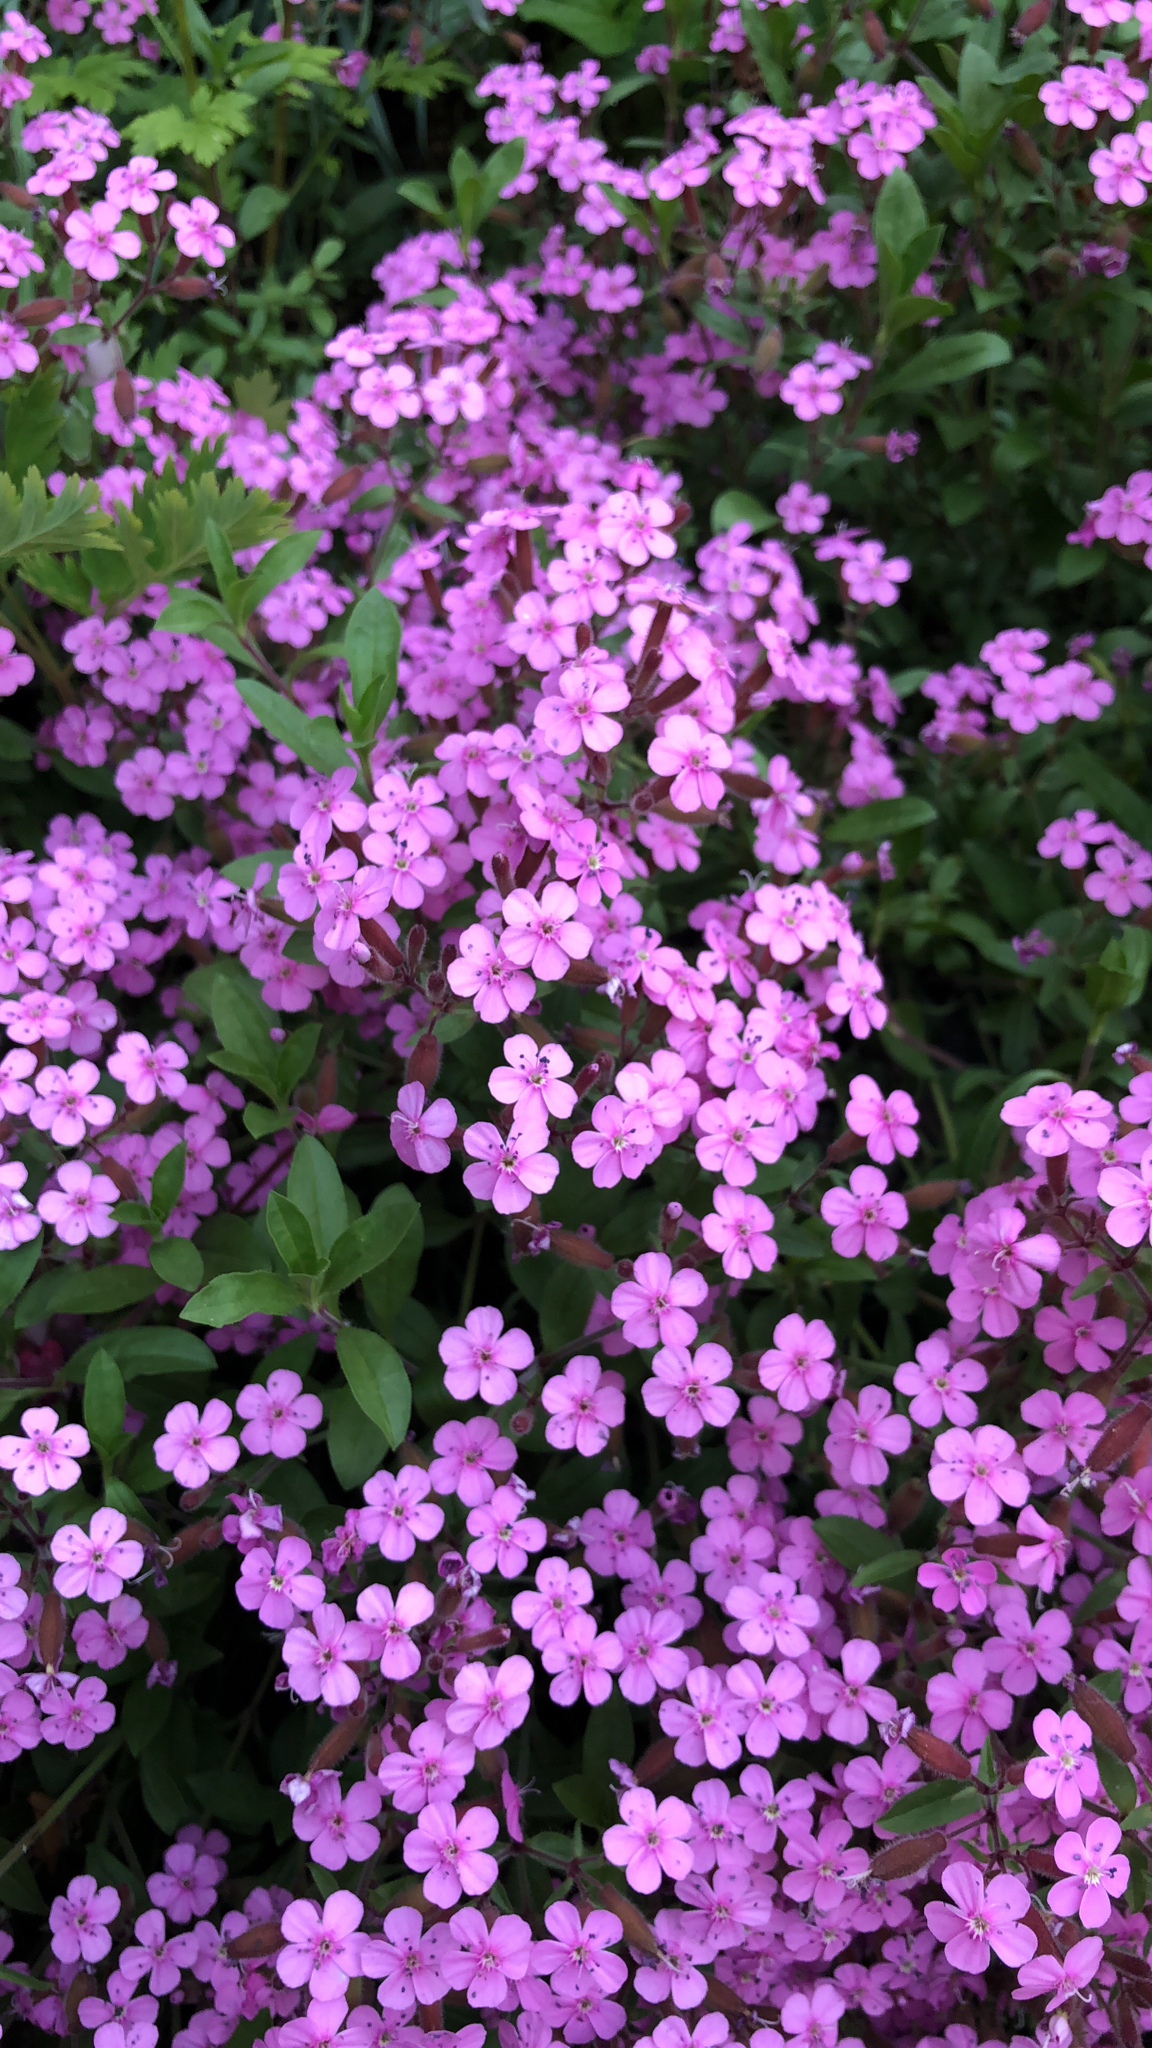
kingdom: Plantae
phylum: Tracheophyta
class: Magnoliopsida
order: Caryophyllales
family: Caryophyllaceae
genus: Saponaria
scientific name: Saponaria ocymoides
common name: Rock soapwort
